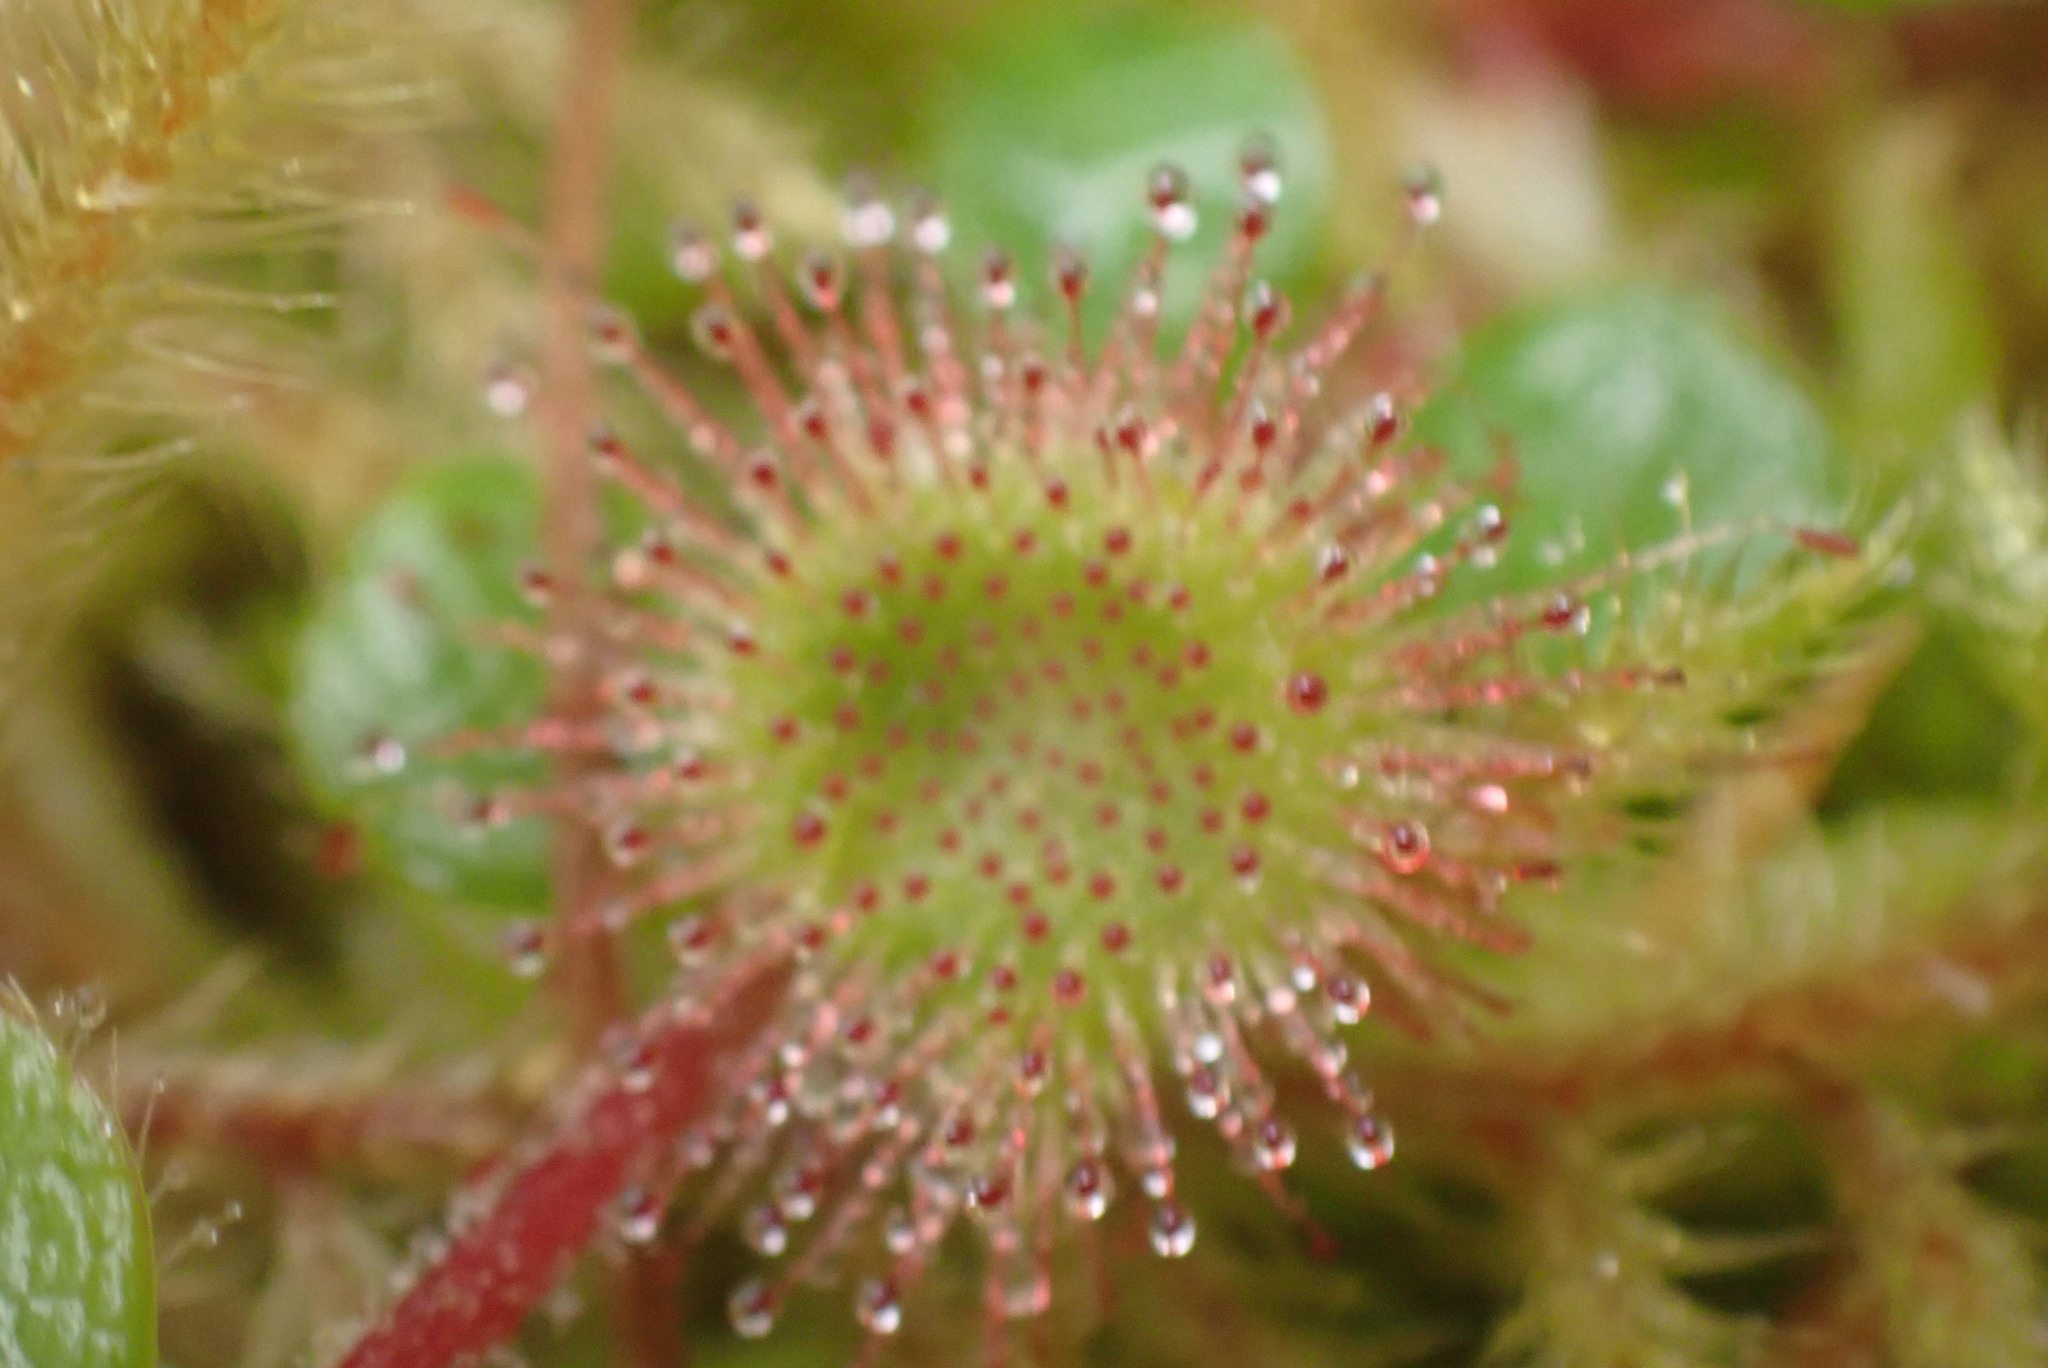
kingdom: Plantae
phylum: Tracheophyta
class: Magnoliopsida
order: Caryophyllales
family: Droseraceae
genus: Drosera
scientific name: Drosera rotundifolia
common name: Round-leaved sundew
